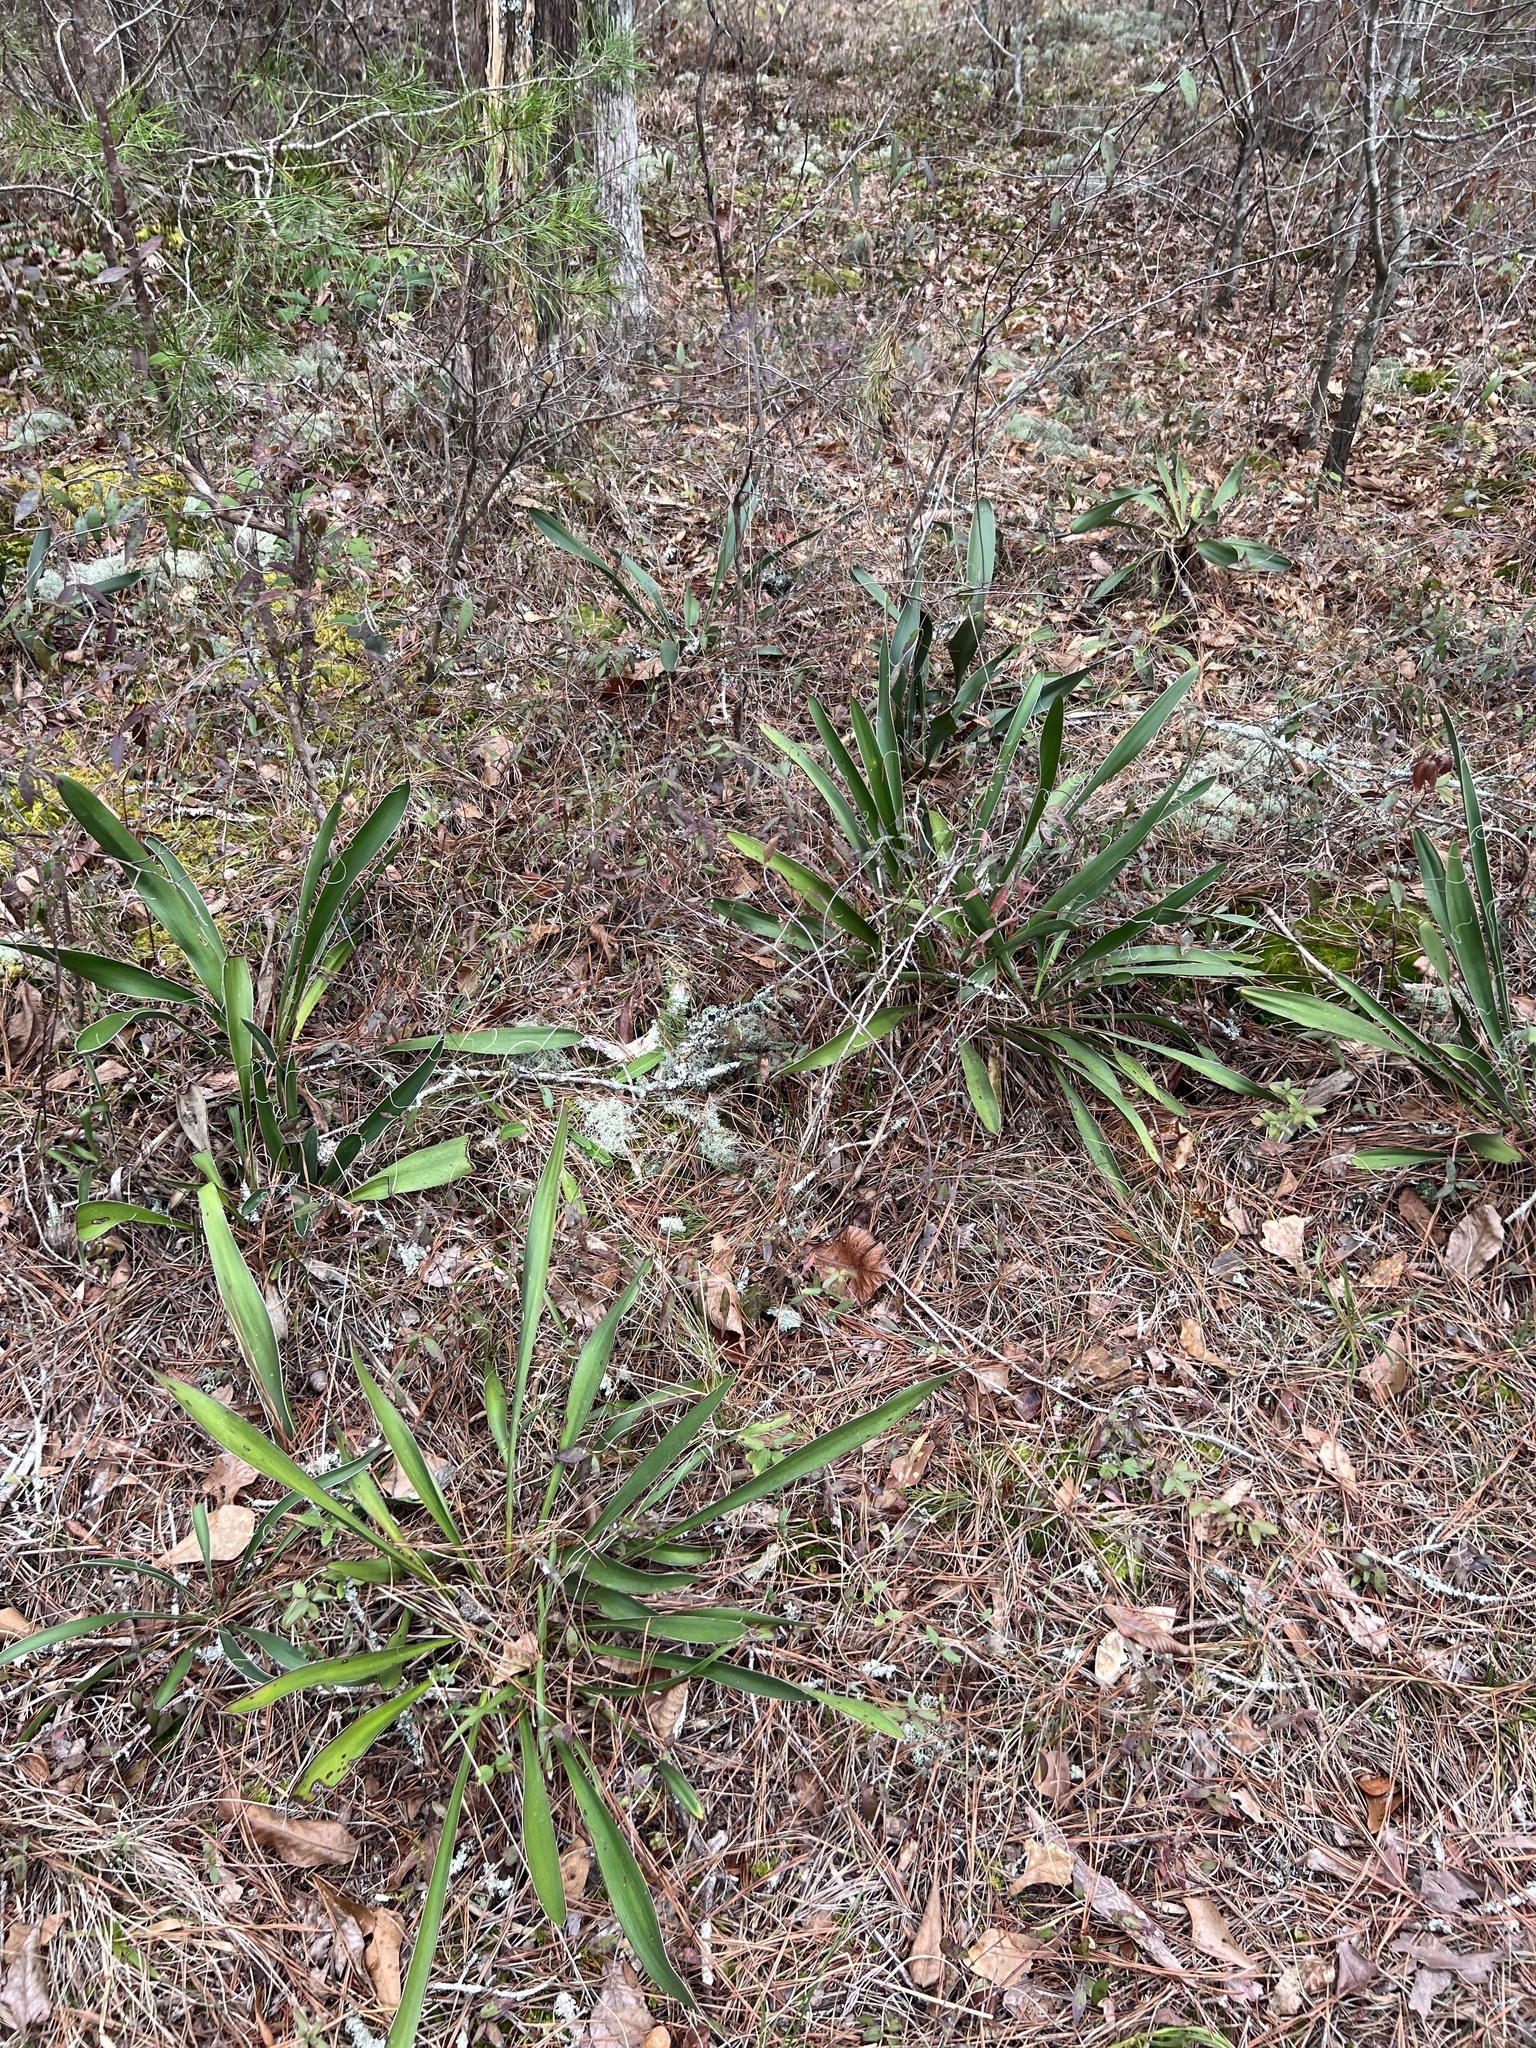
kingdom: Plantae
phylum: Tracheophyta
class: Liliopsida
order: Asparagales
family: Asparagaceae
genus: Yucca
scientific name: Yucca filamentosa
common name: Adam's-needle
